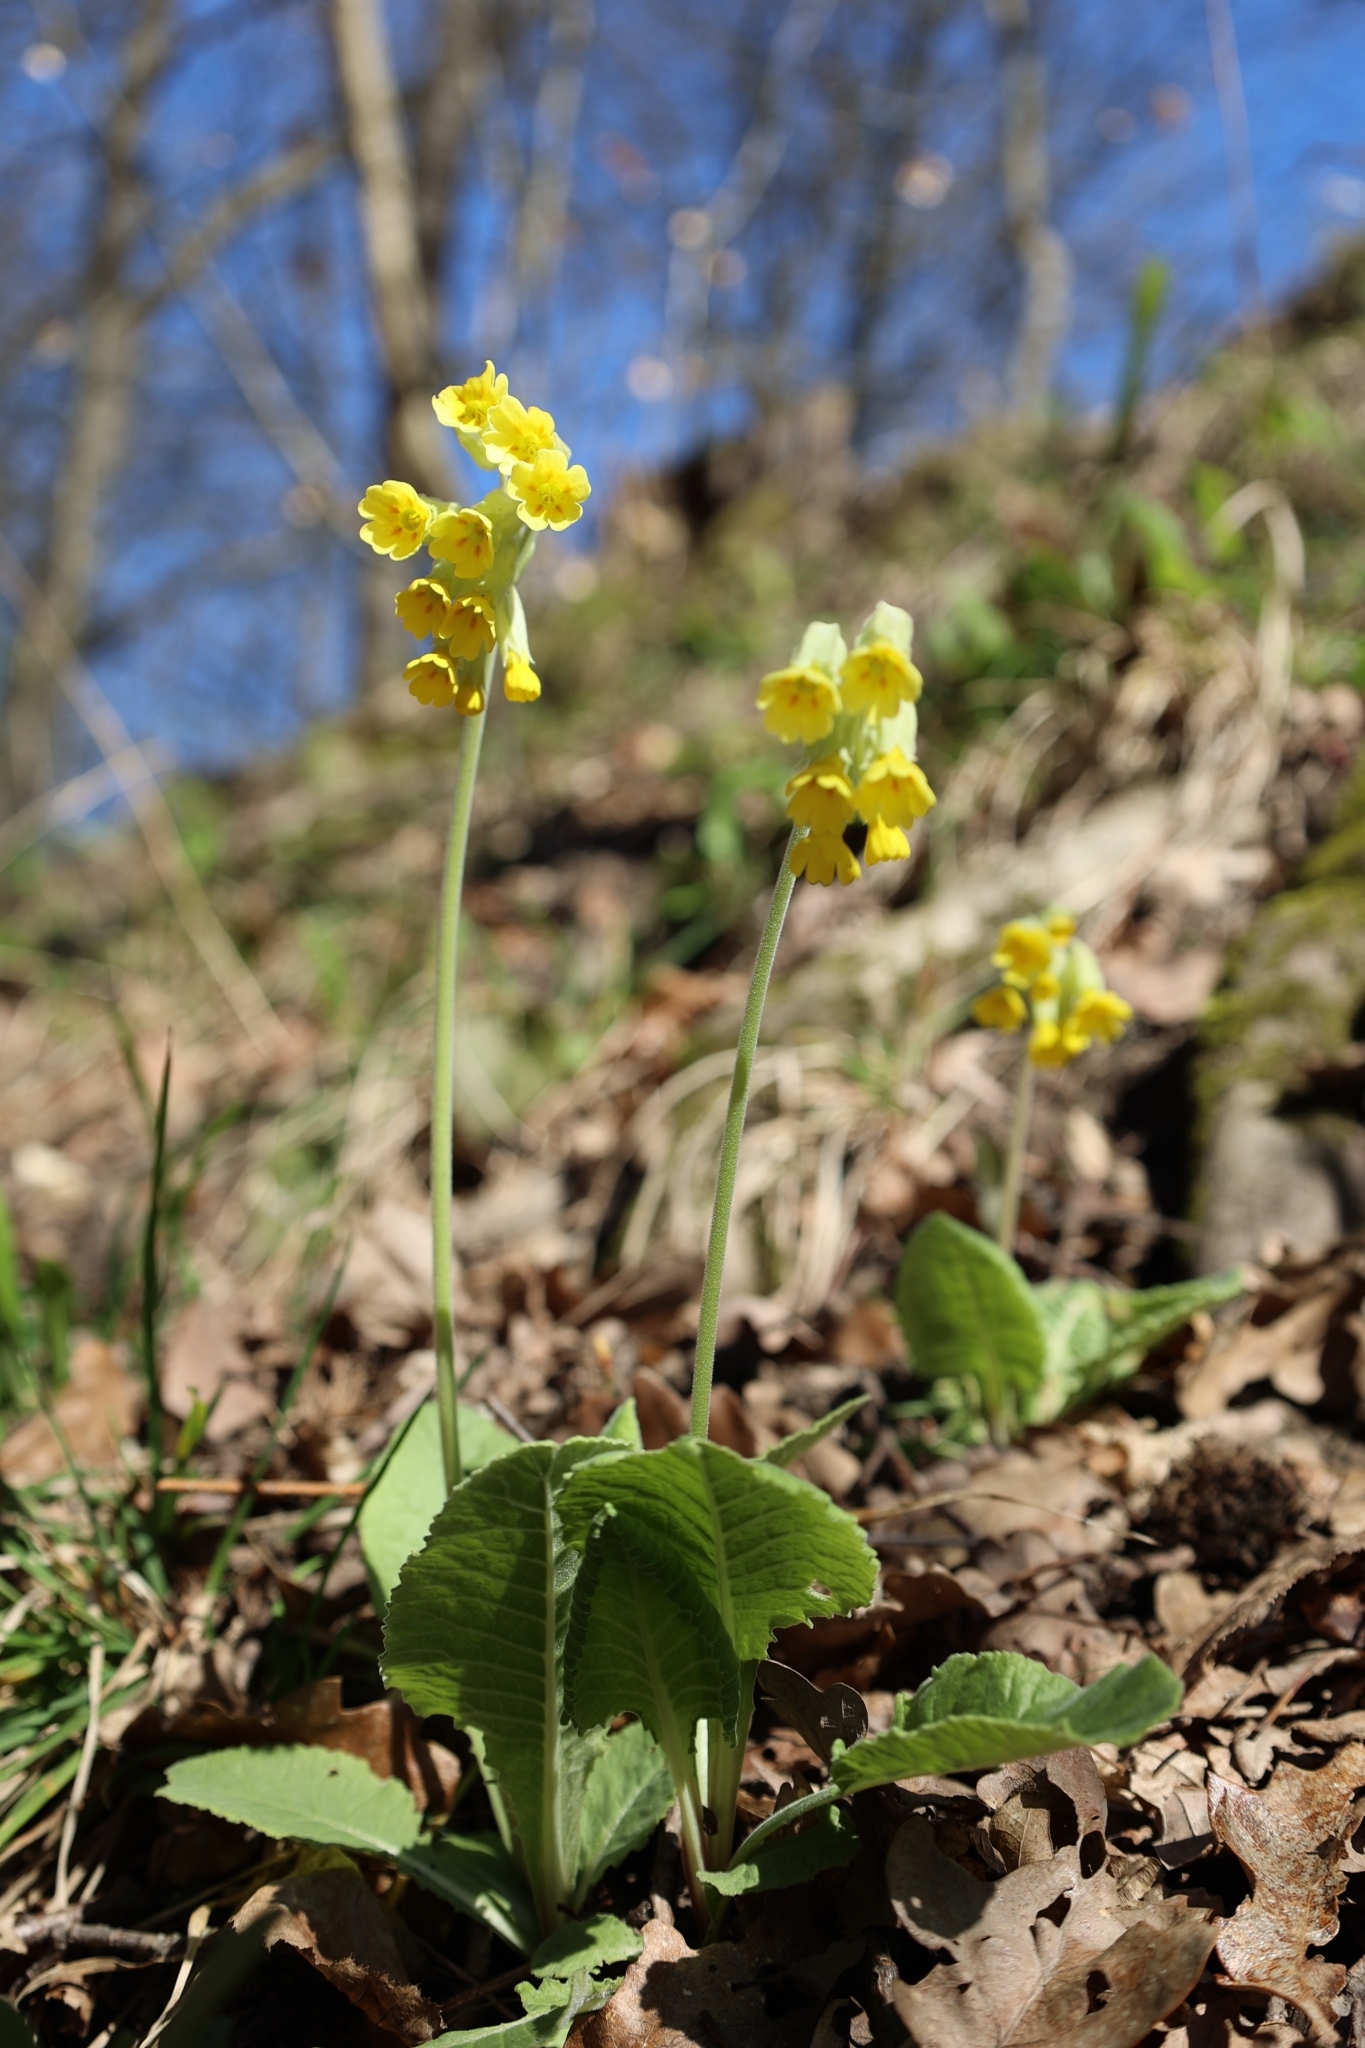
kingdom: Plantae
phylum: Tracheophyta
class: Magnoliopsida
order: Ericales
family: Primulaceae
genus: Primula
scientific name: Primula veris
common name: Cowslip
